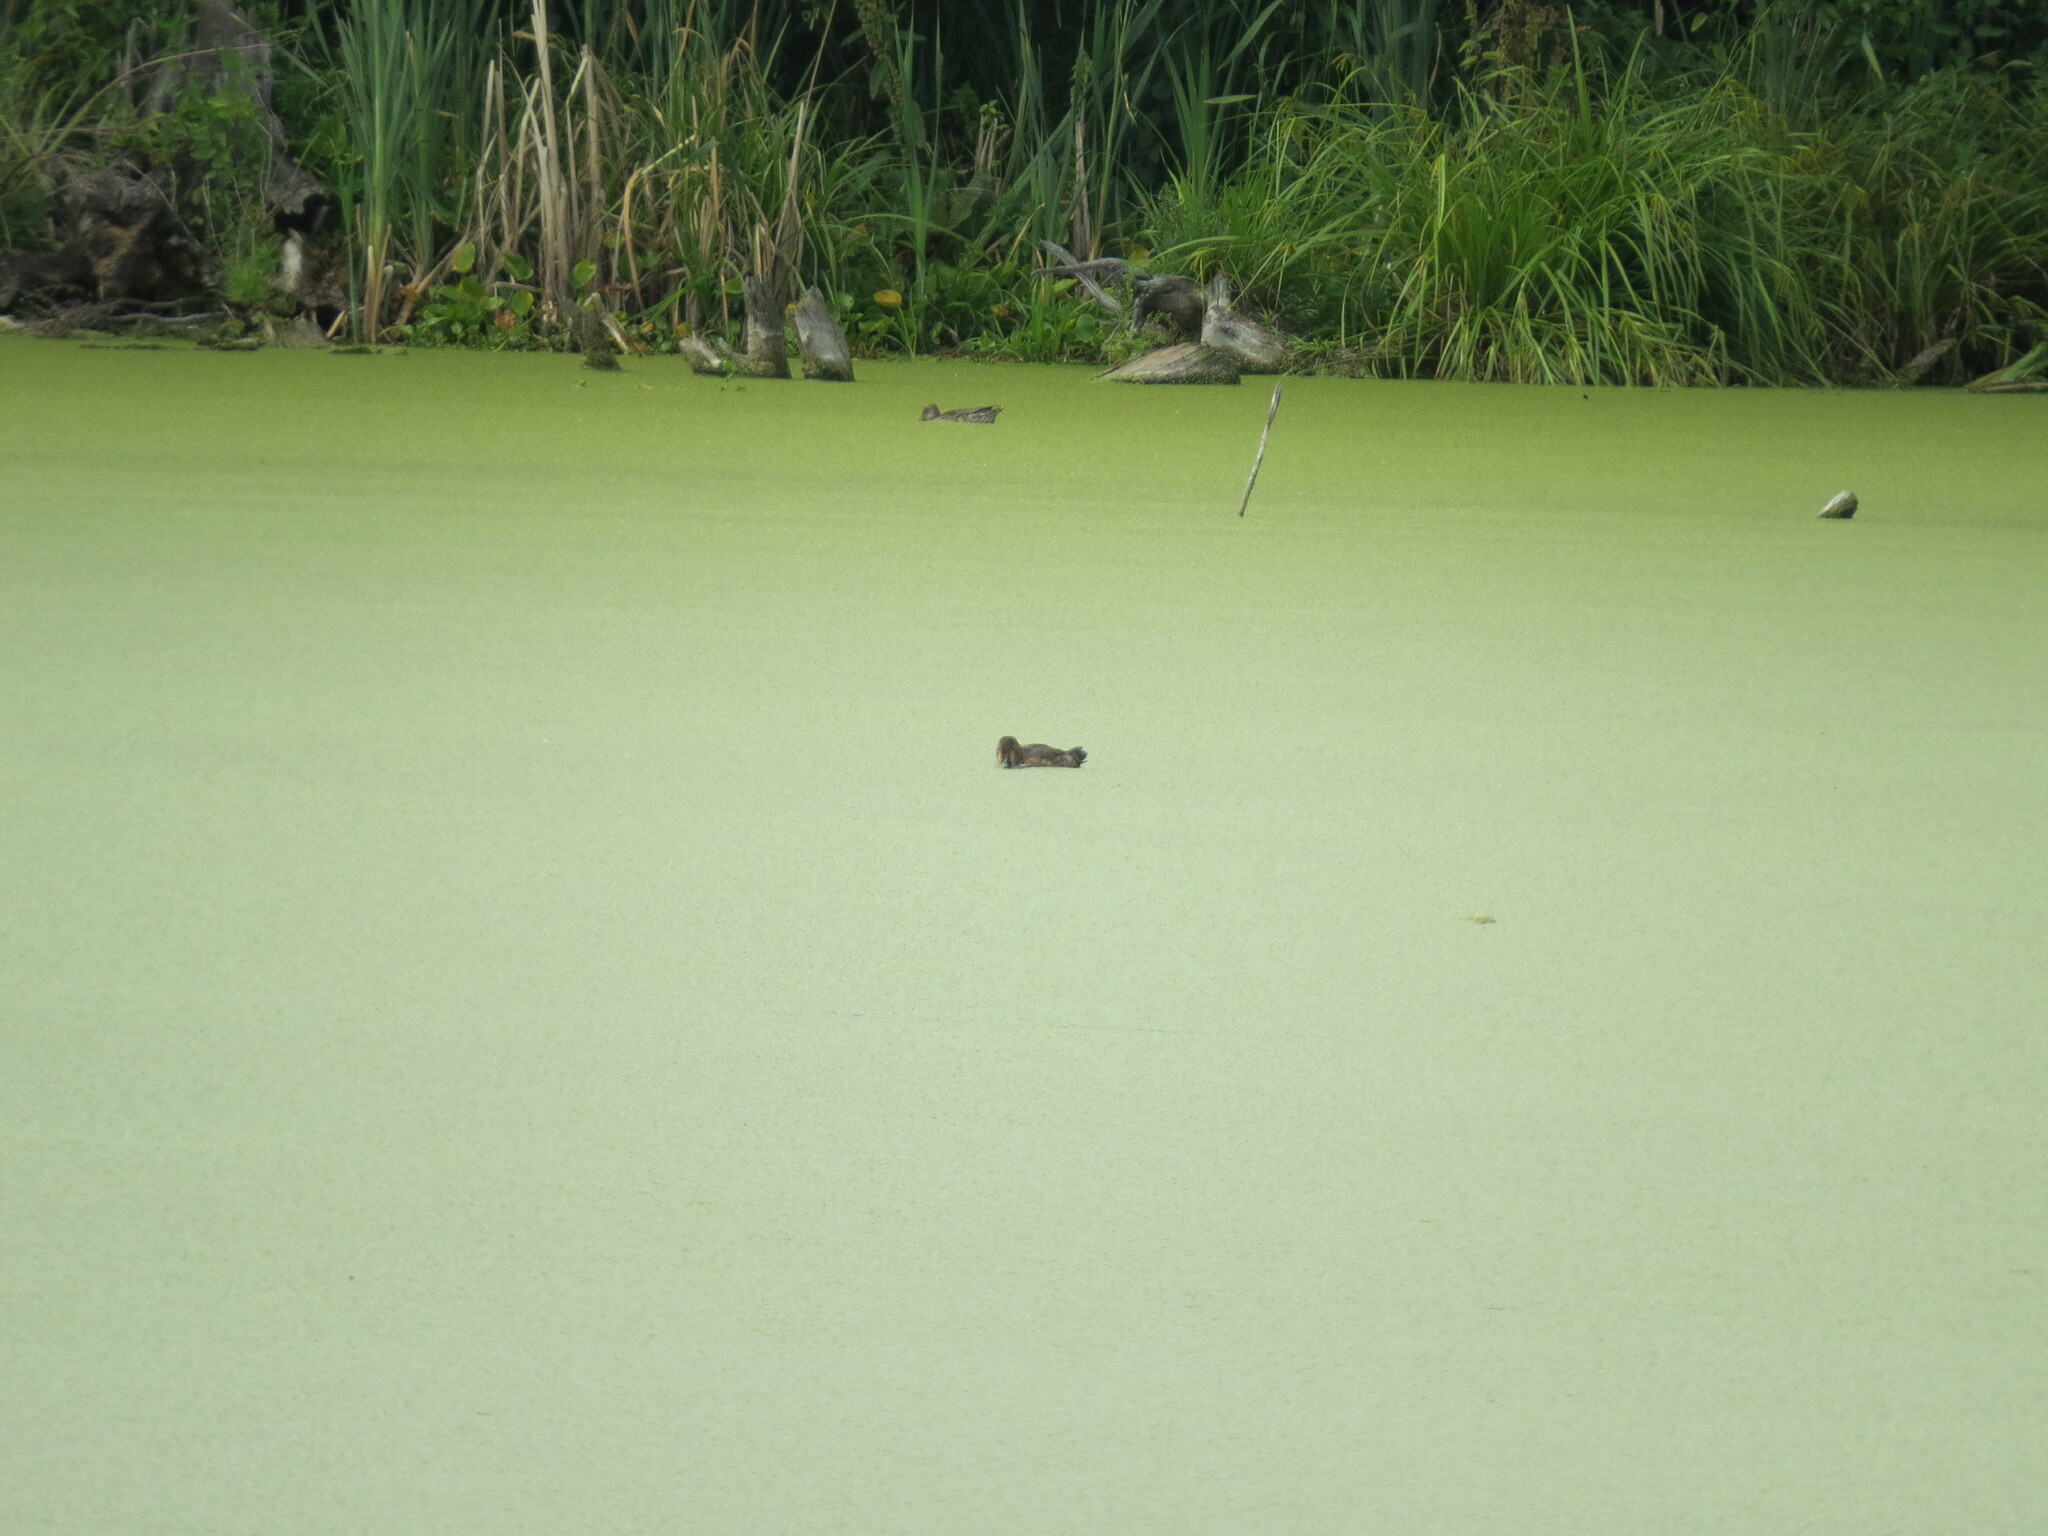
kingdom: Animalia
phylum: Chordata
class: Aves
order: Anseriformes
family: Anatidae
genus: Aythya
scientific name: Aythya ferina
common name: Common pochard
